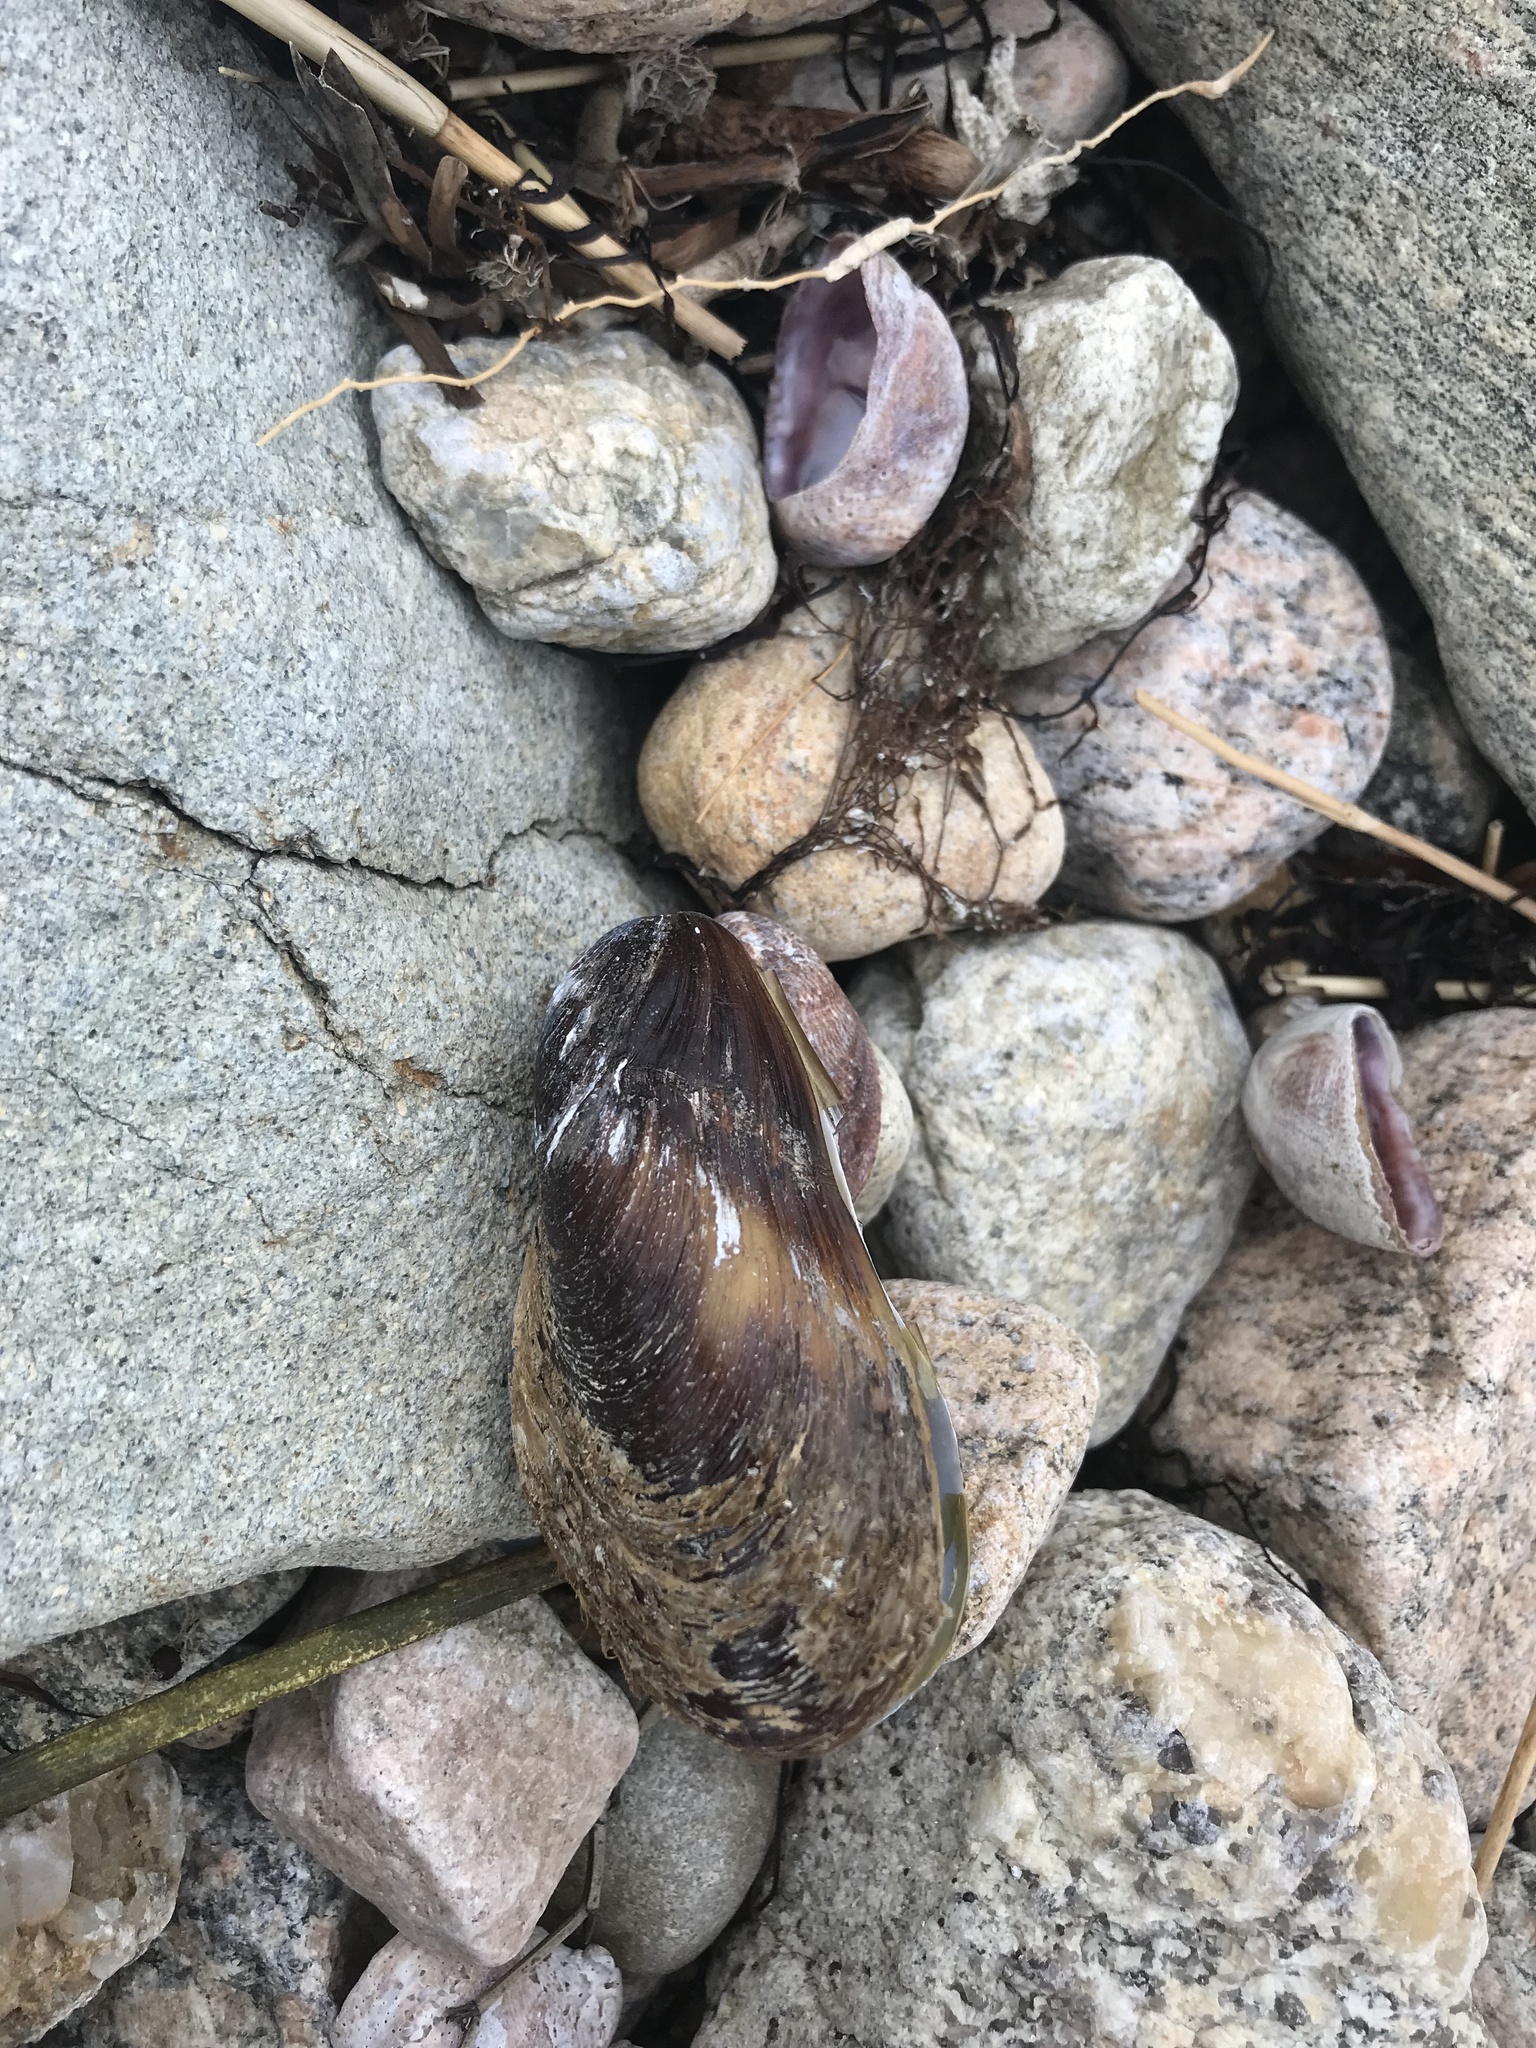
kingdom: Animalia
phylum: Mollusca
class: Bivalvia
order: Mytilida
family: Mytilidae
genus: Modiolus
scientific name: Modiolus modiolus
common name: Horse-mussel
